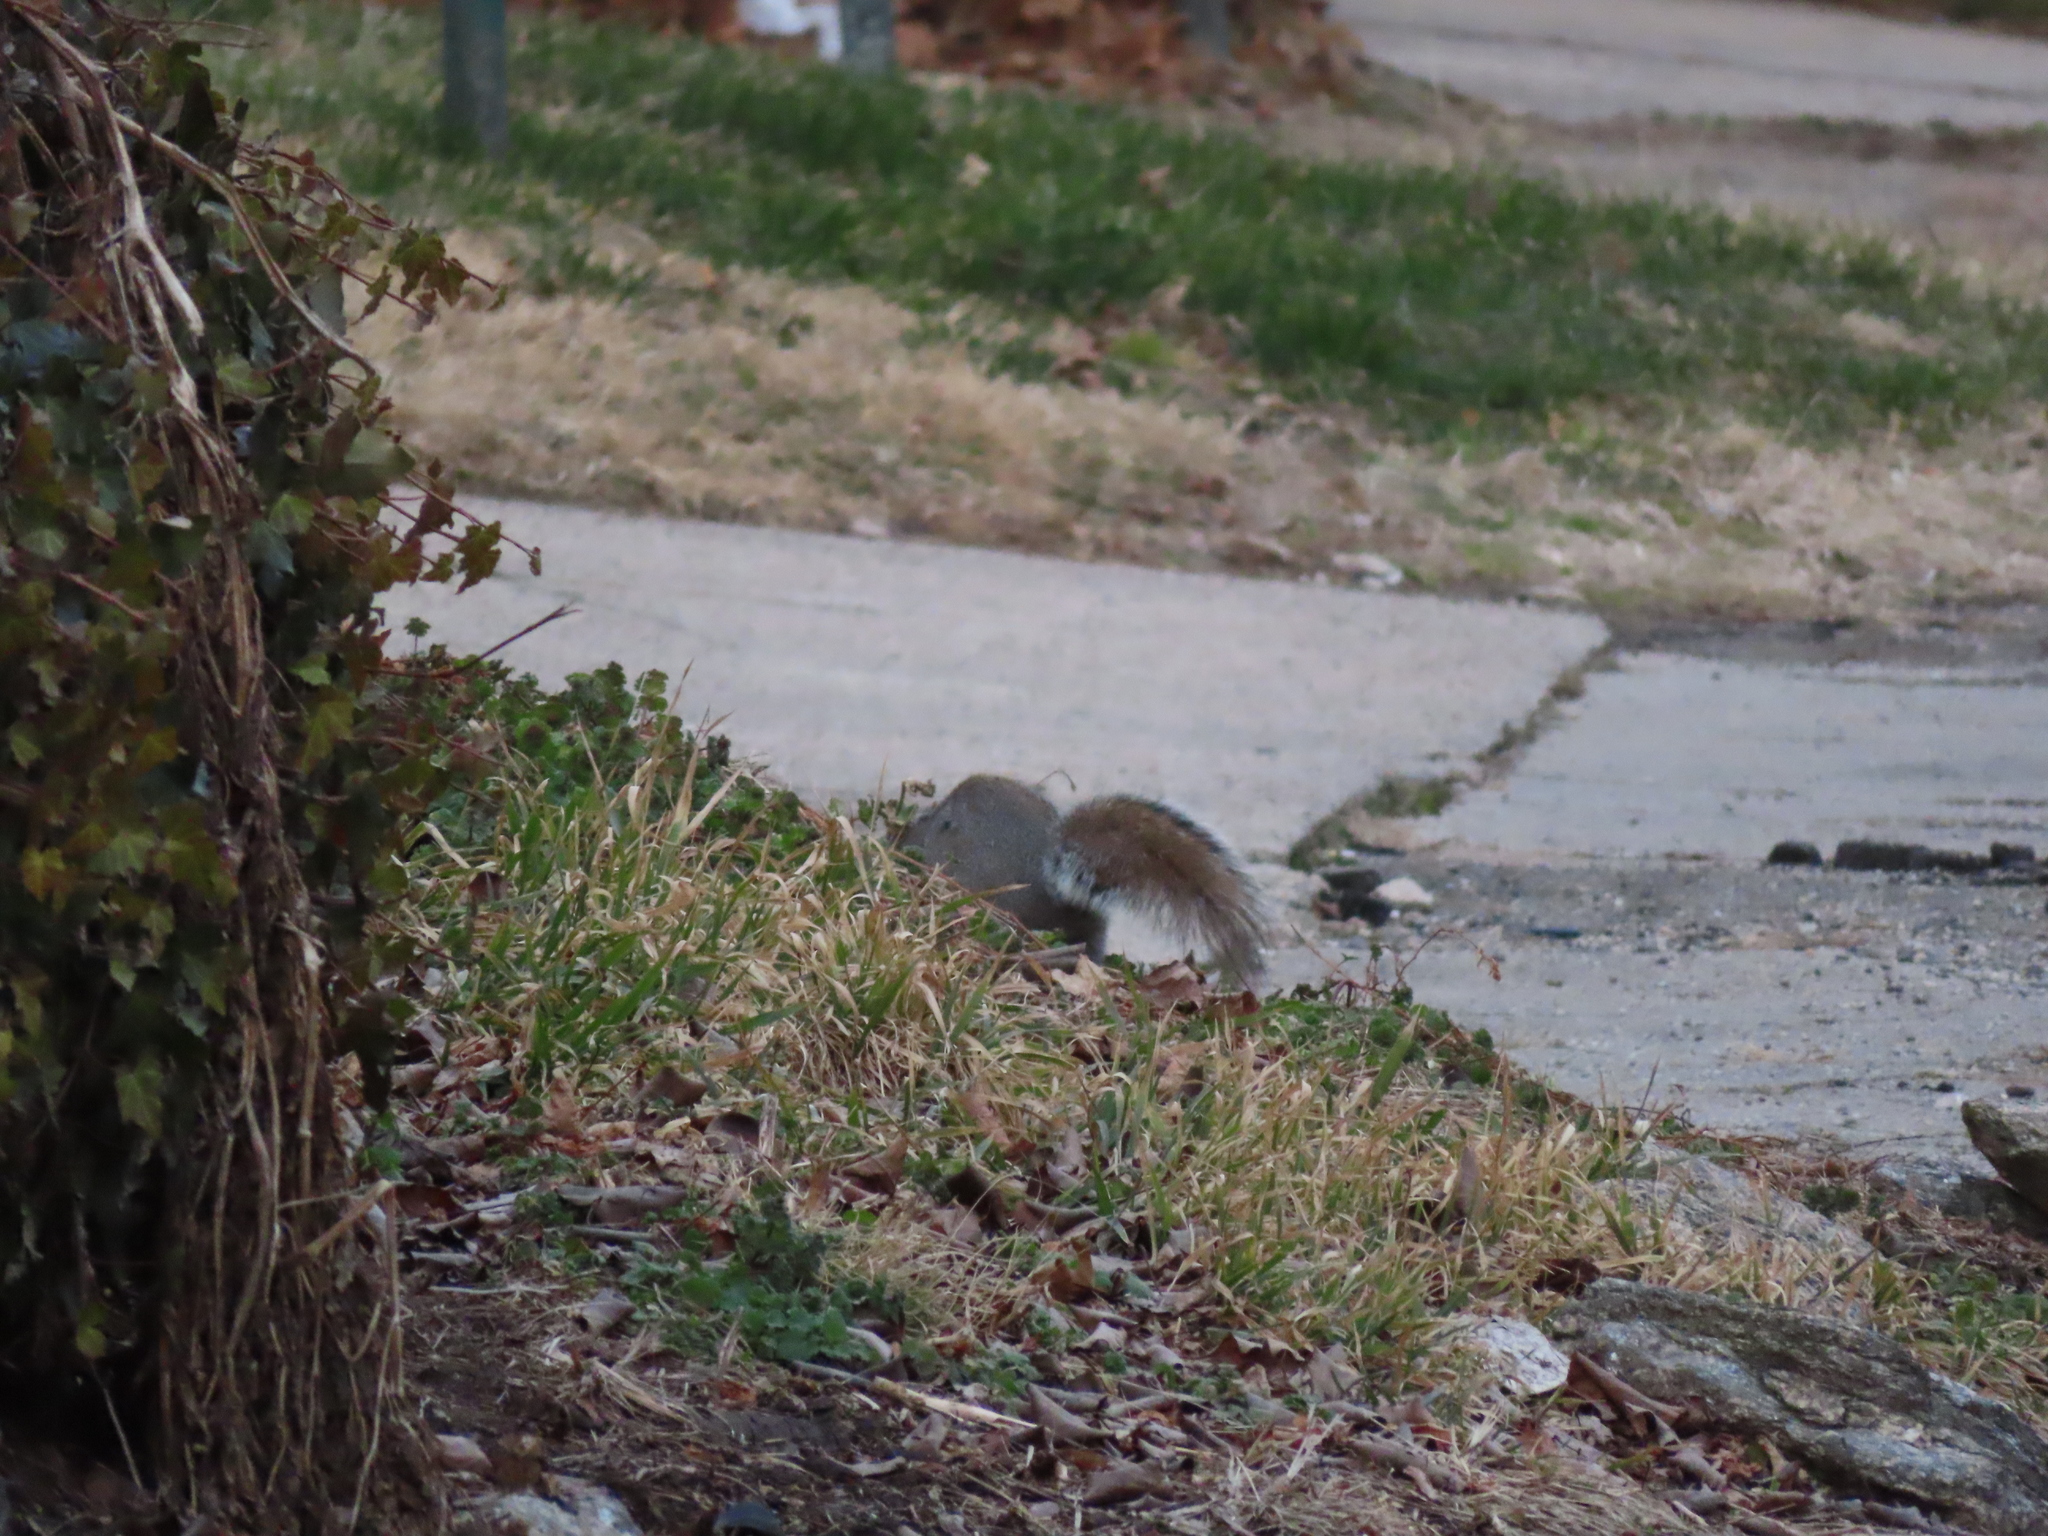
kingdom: Animalia
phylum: Chordata
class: Mammalia
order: Rodentia
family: Sciuridae
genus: Sciurus
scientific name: Sciurus carolinensis
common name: Eastern gray squirrel
